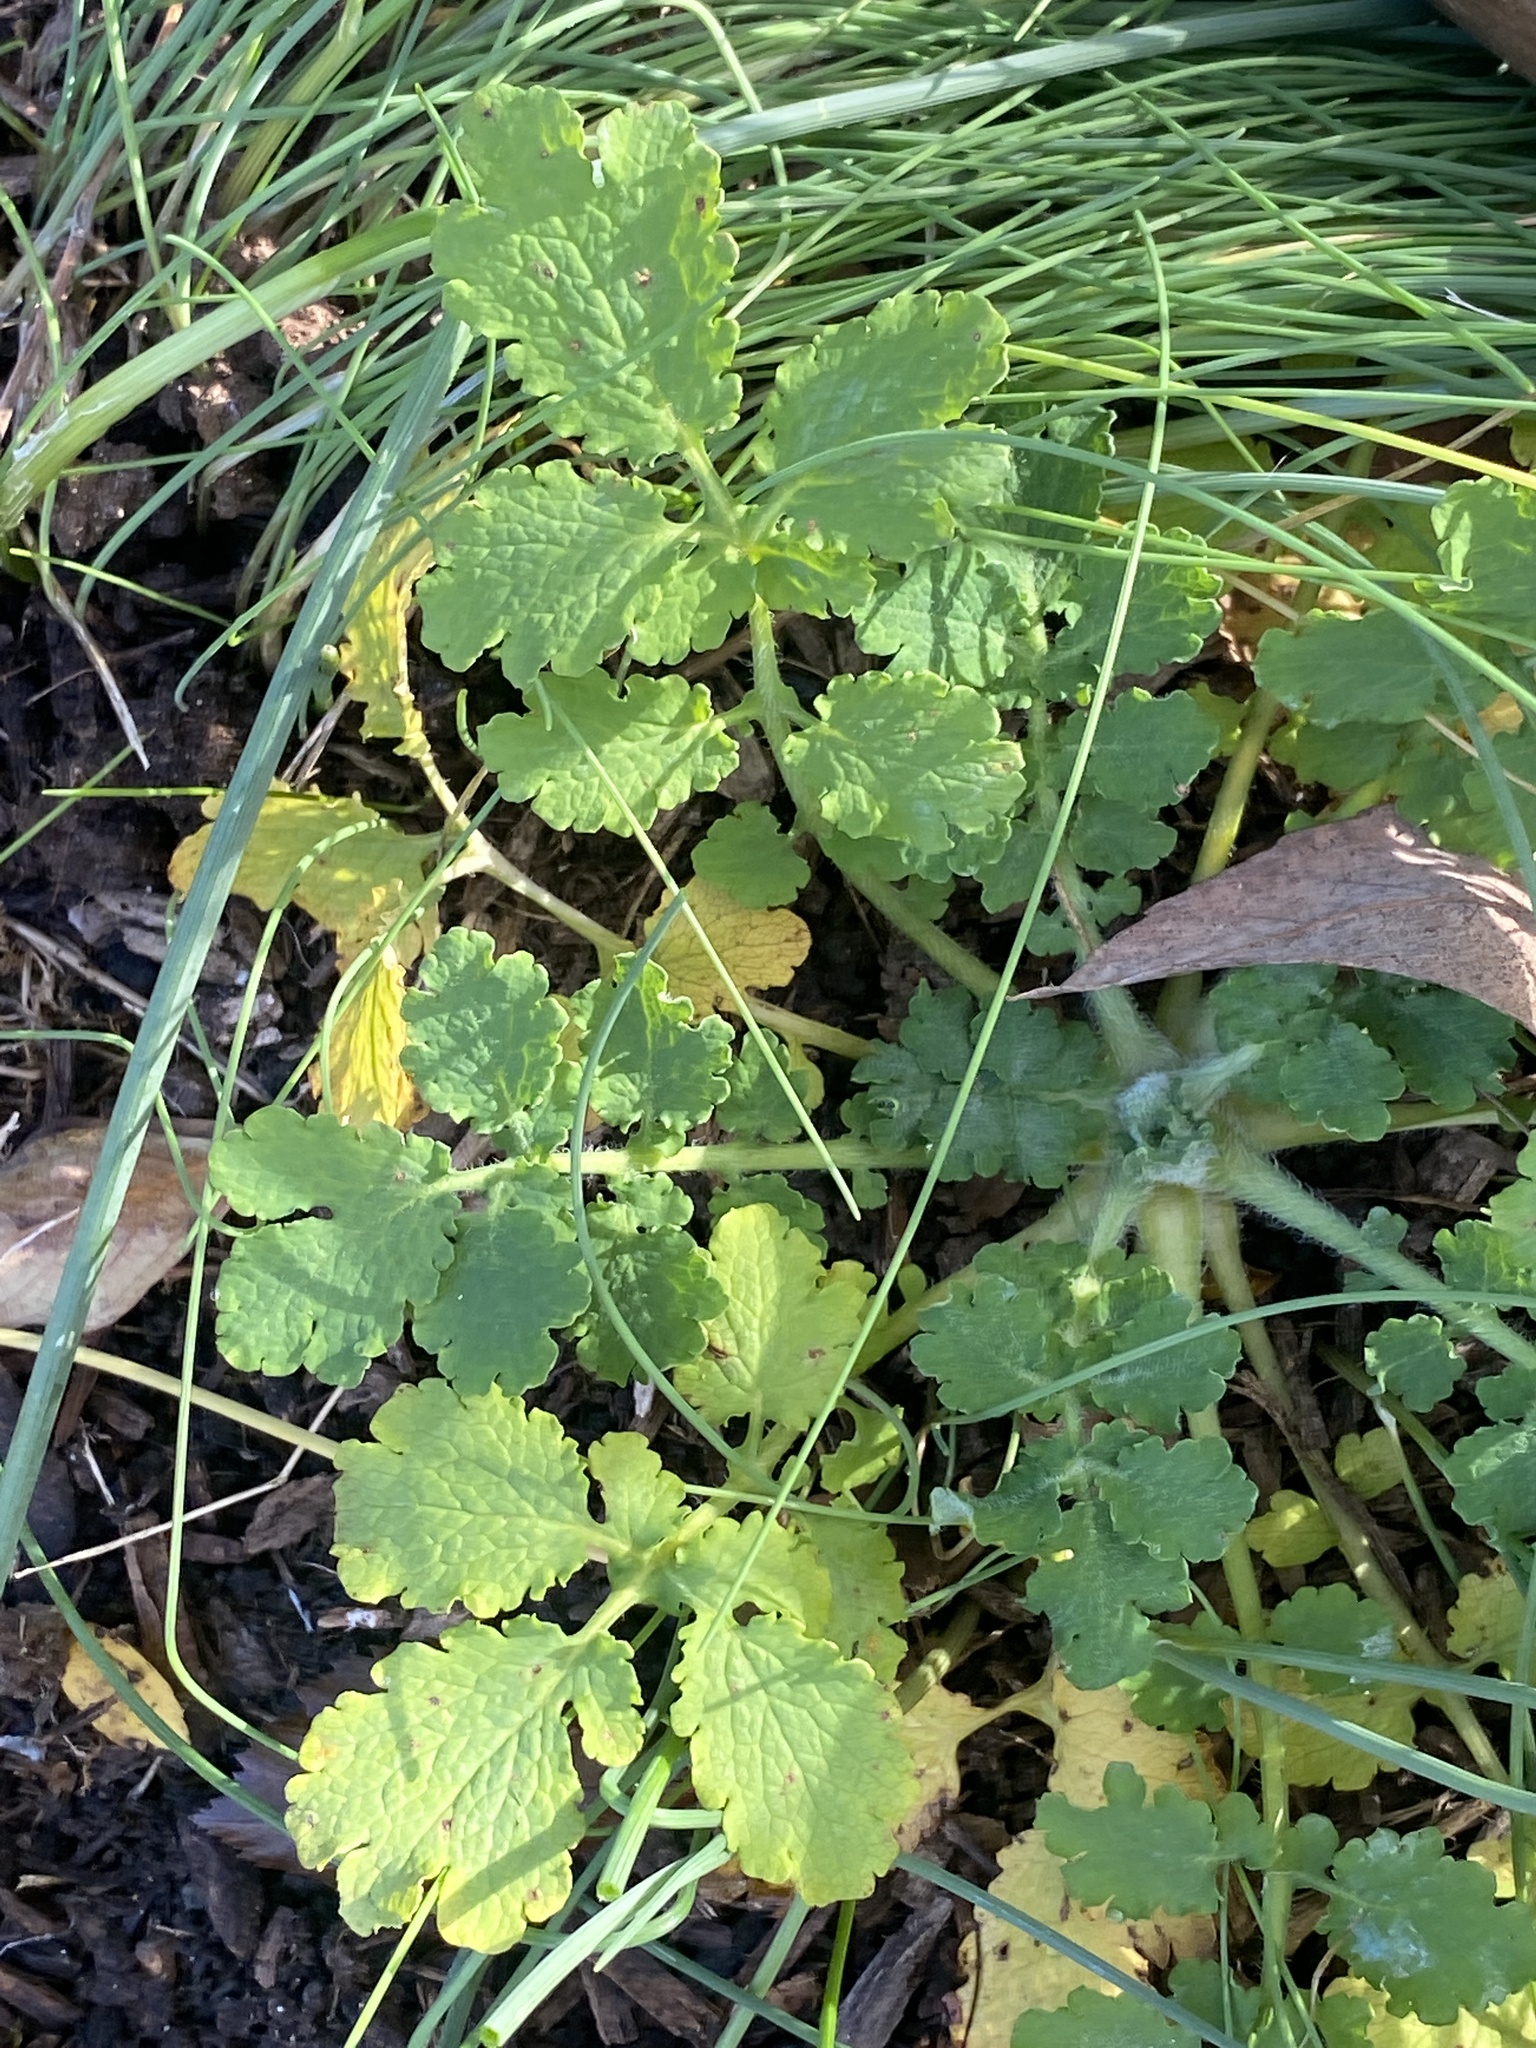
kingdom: Plantae
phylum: Tracheophyta
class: Magnoliopsida
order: Ranunculales
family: Papaveraceae
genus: Chelidonium
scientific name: Chelidonium majus
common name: Greater celandine
